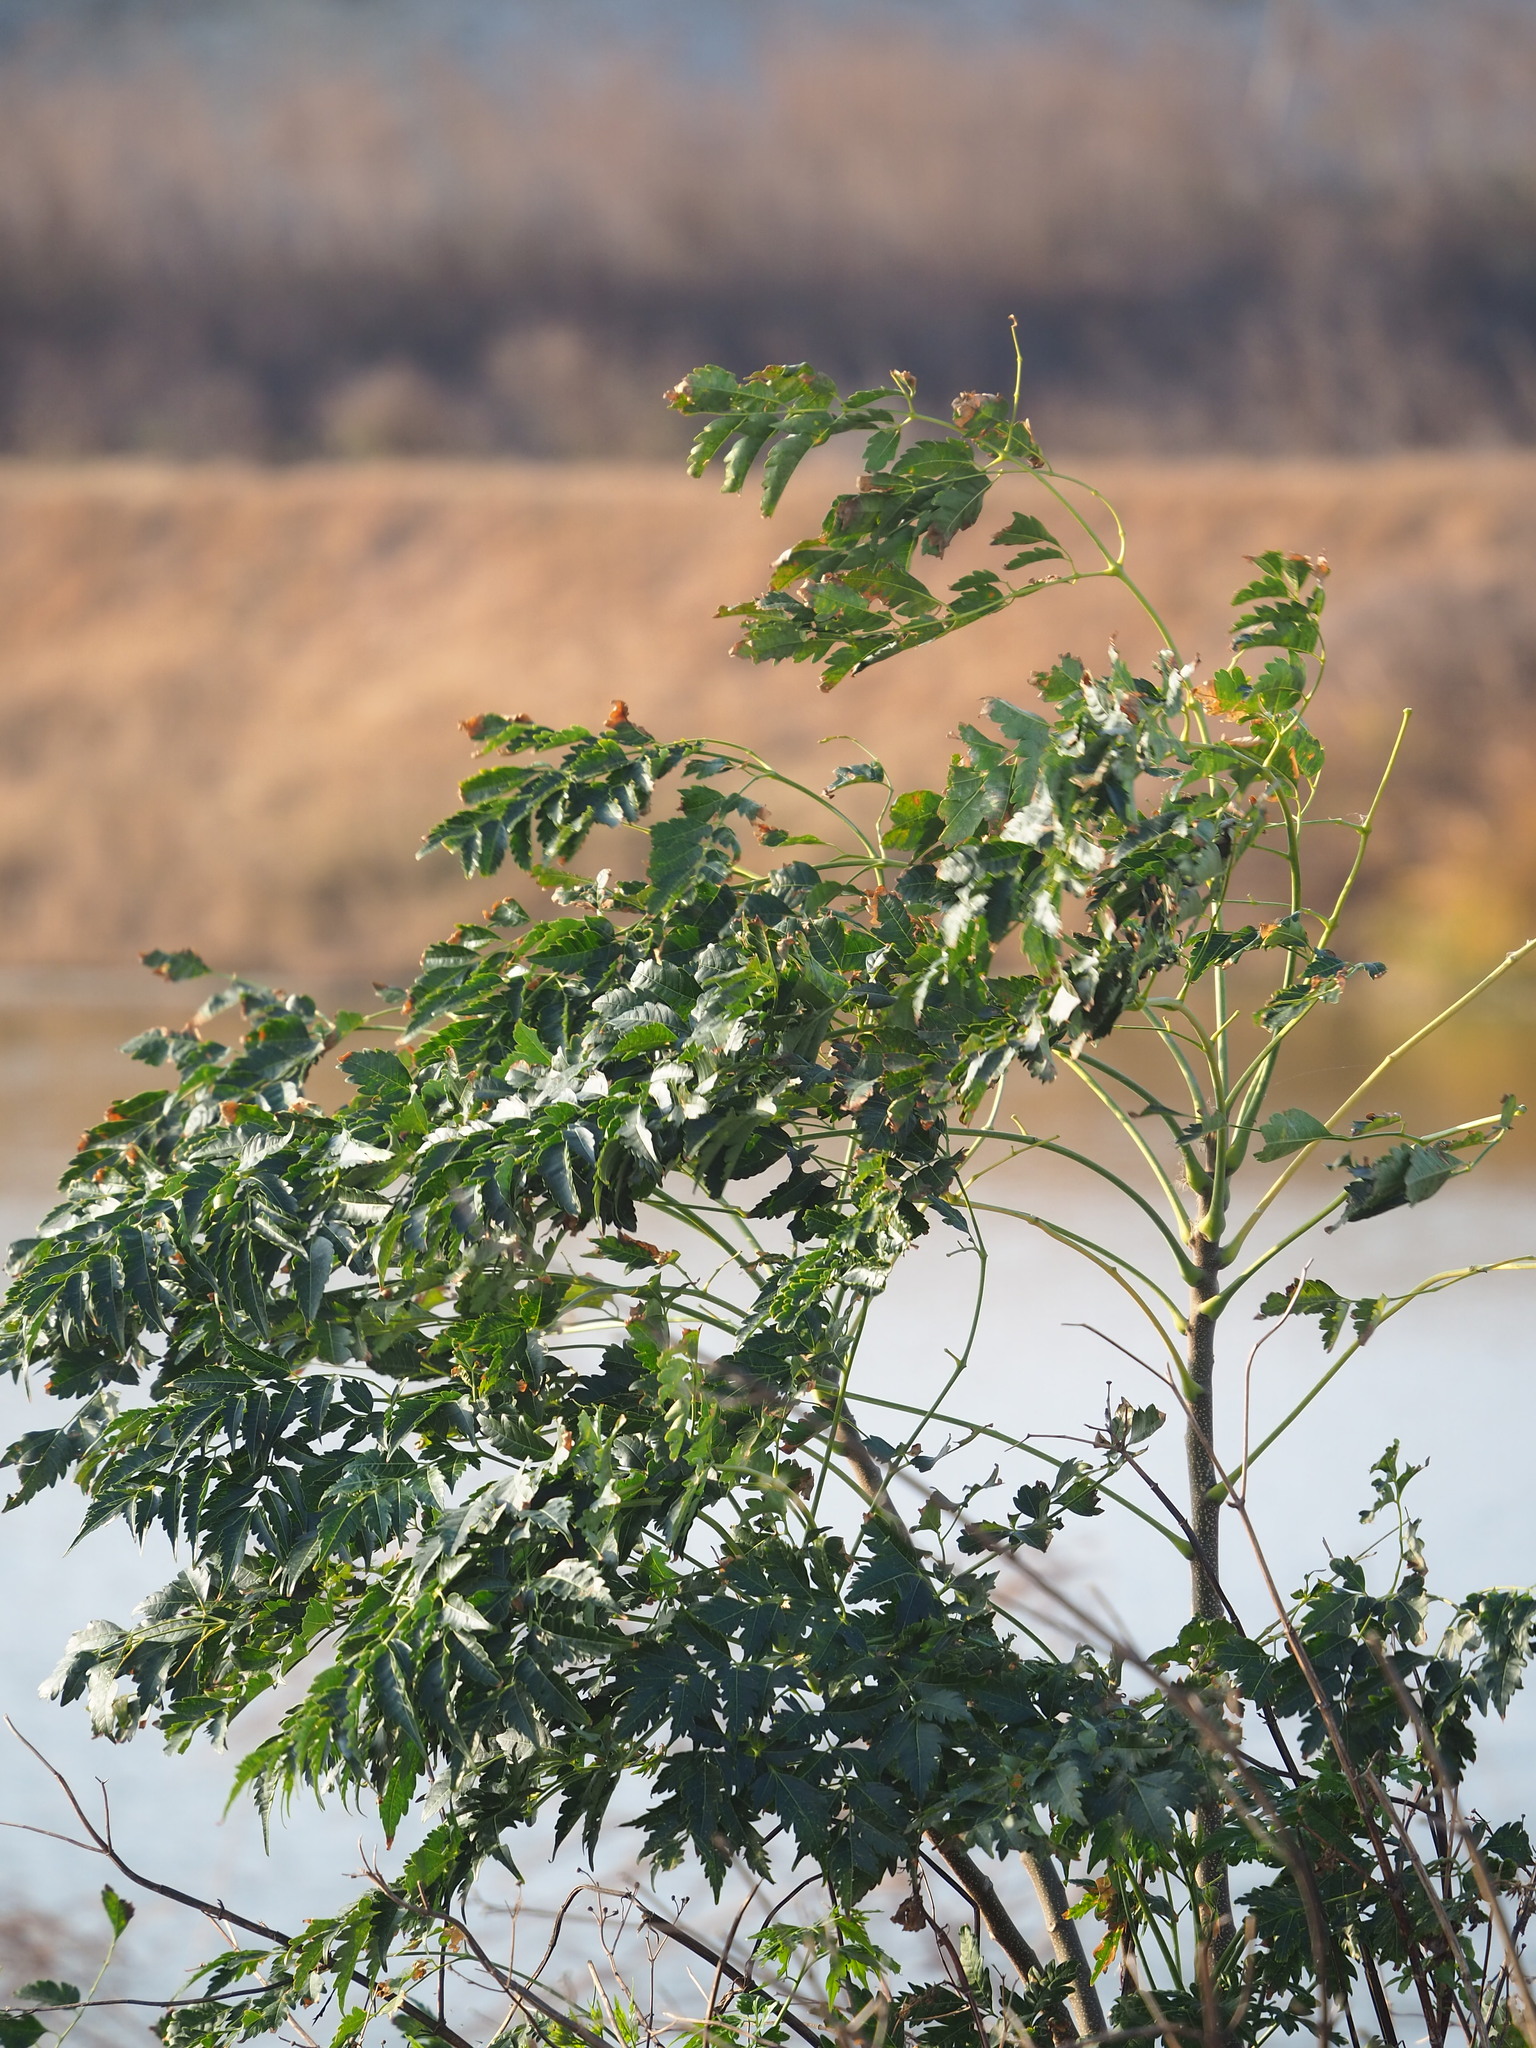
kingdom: Plantae
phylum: Tracheophyta
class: Magnoliopsida
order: Sapindales
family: Meliaceae
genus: Melia
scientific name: Melia azedarach
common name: Chinaberrytree
